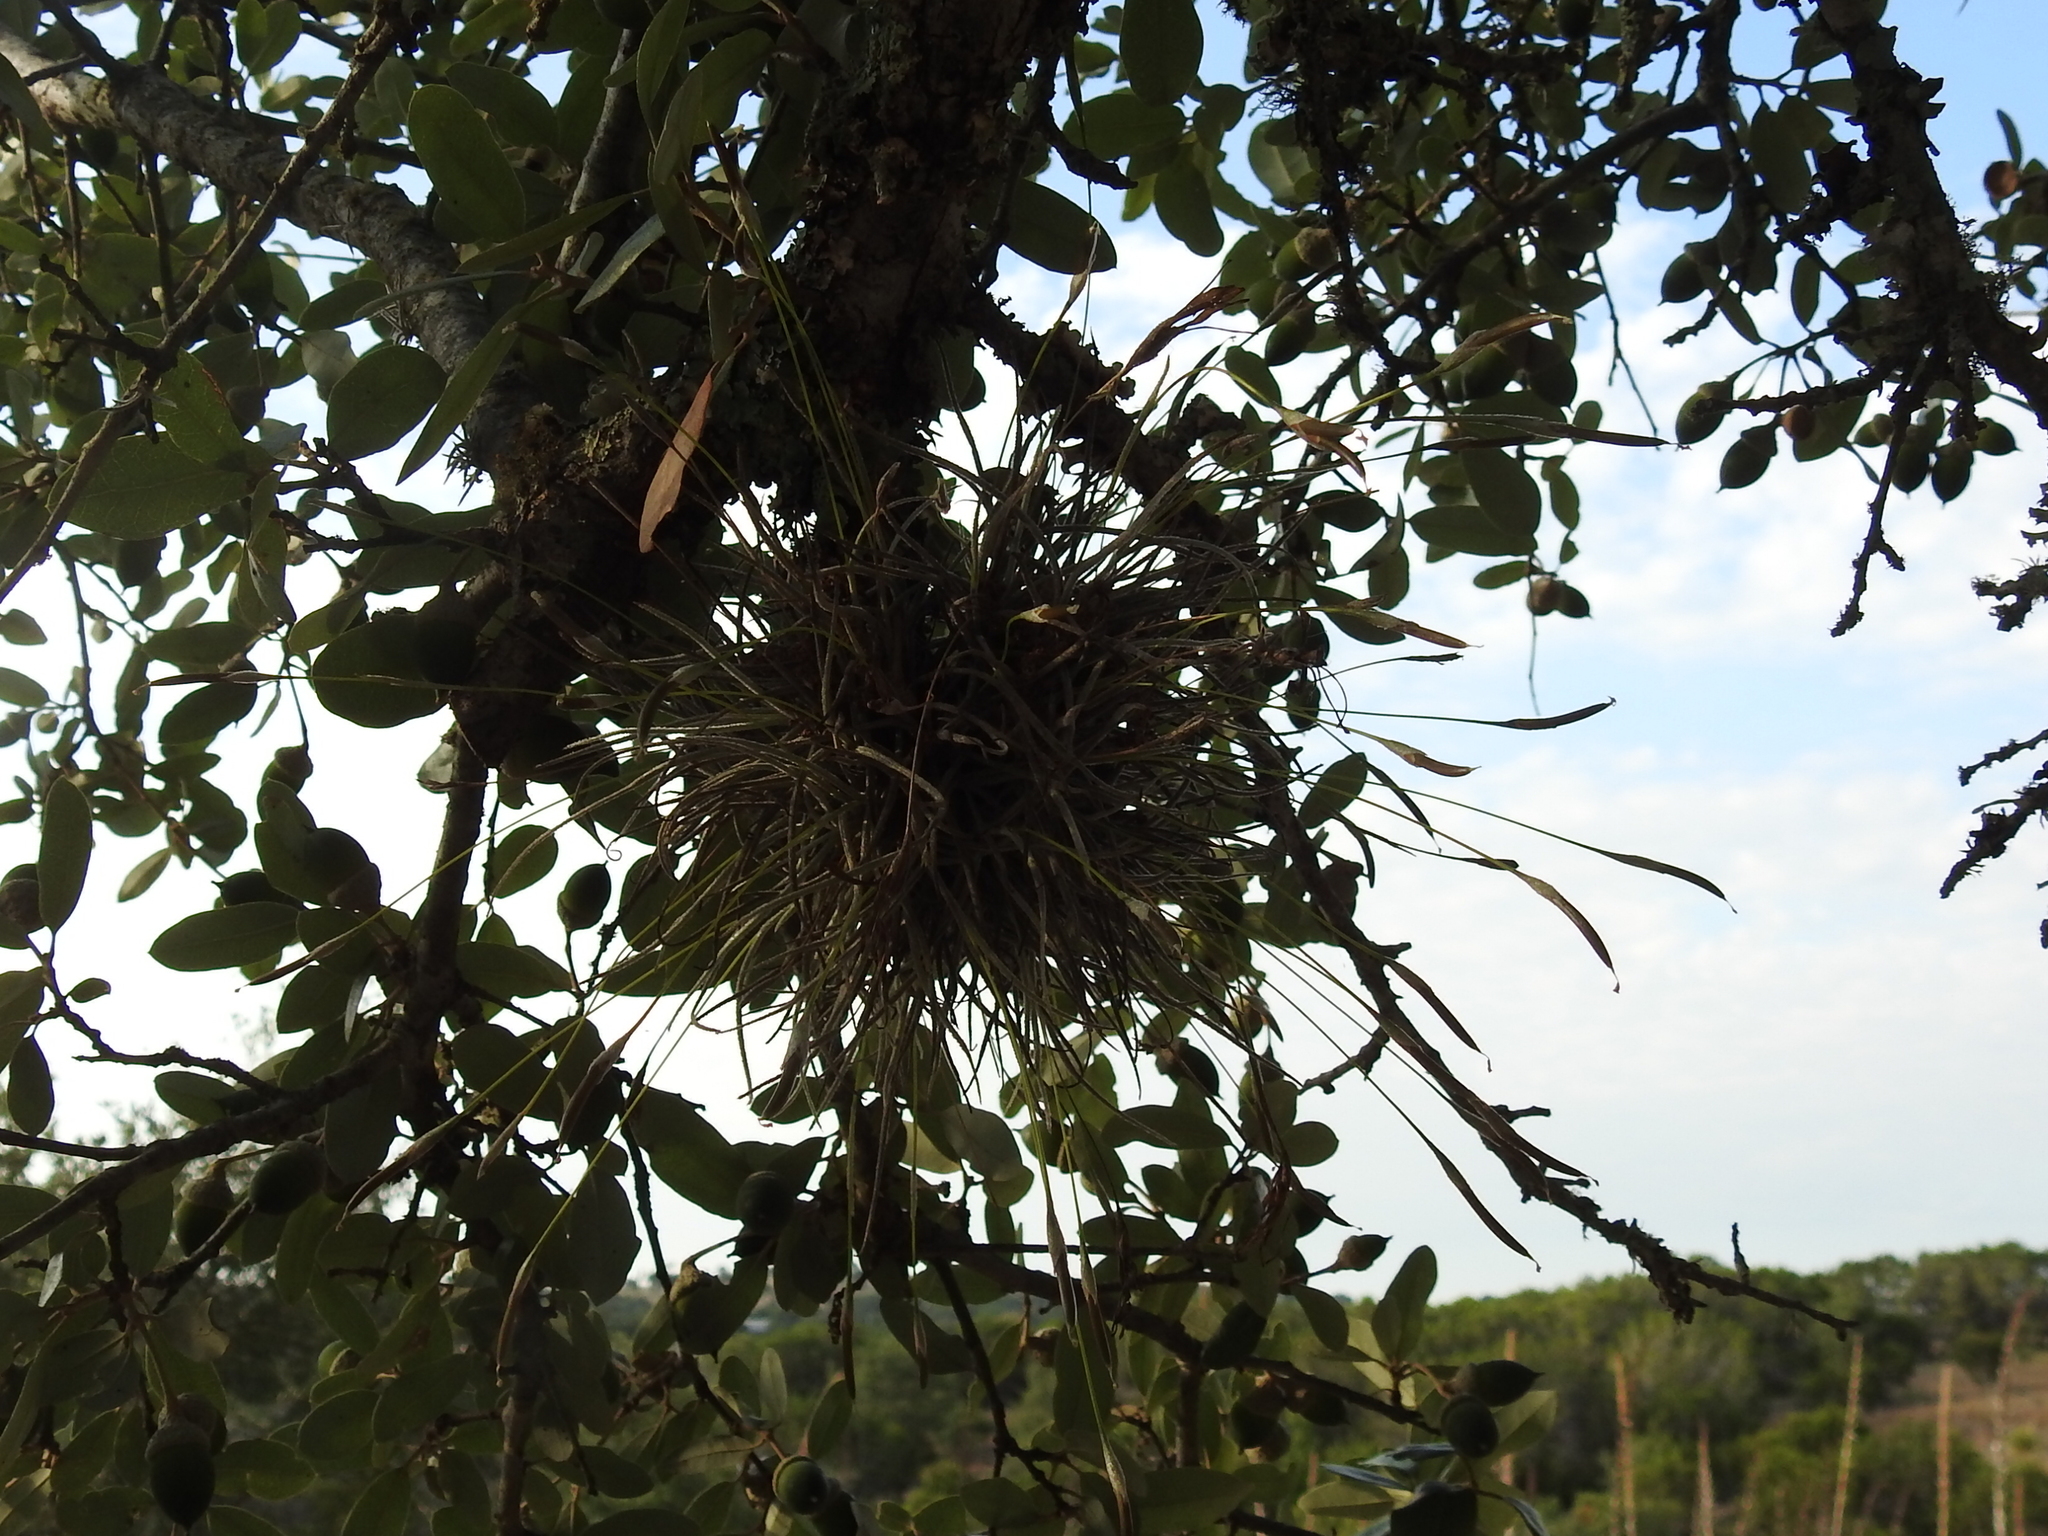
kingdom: Plantae
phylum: Tracheophyta
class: Liliopsida
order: Poales
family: Bromeliaceae
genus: Tillandsia
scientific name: Tillandsia recurvata
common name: Small ballmoss
